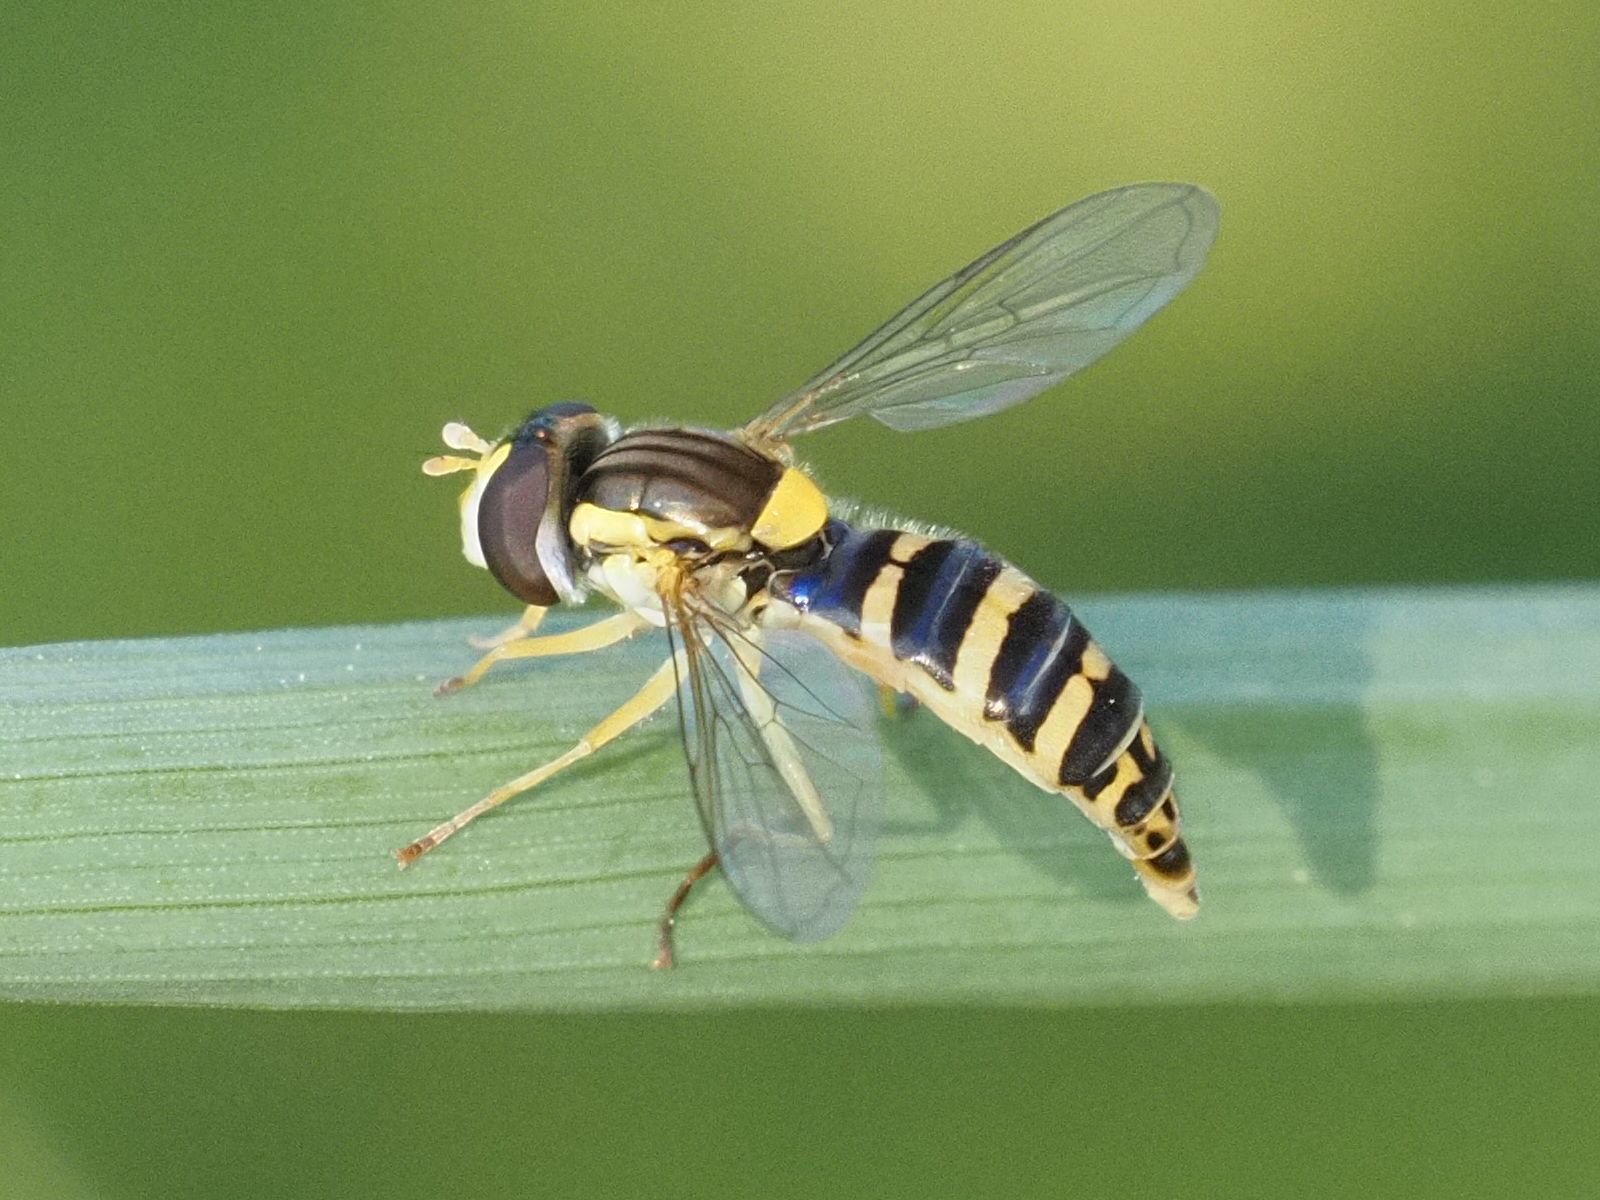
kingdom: Animalia
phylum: Arthropoda
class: Insecta
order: Diptera
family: Syrphidae
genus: Sphaerophoria
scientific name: Sphaerophoria
